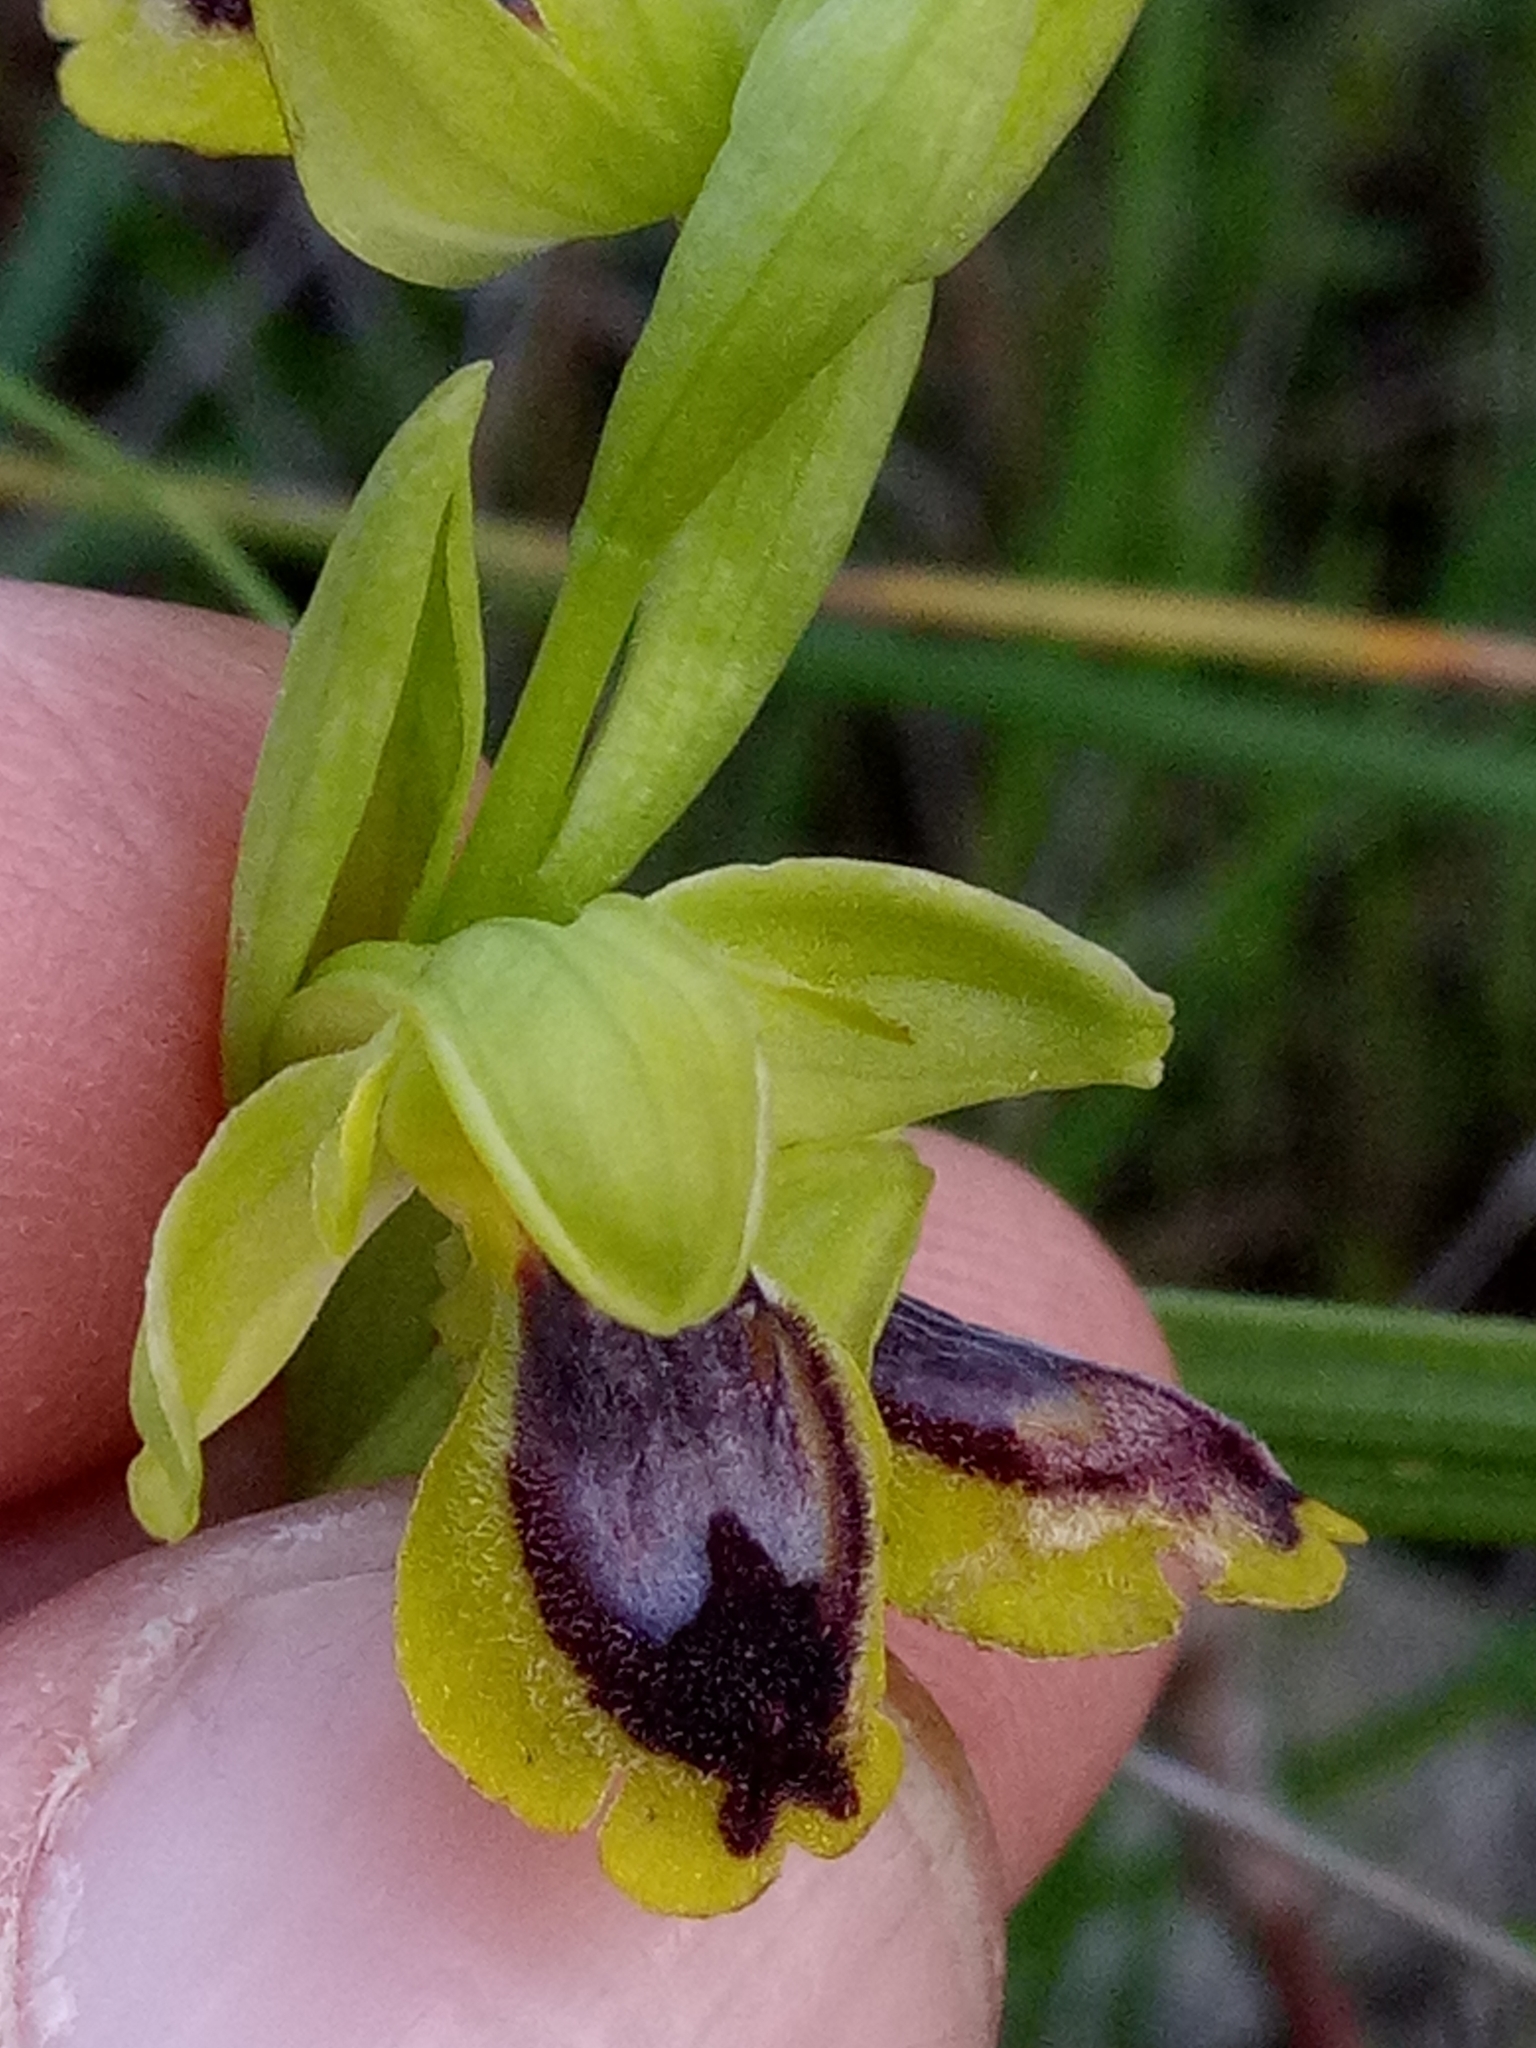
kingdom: Plantae
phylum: Tracheophyta
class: Liliopsida
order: Asparagales
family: Orchidaceae
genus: Ophrys
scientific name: Ophrys battandieri
